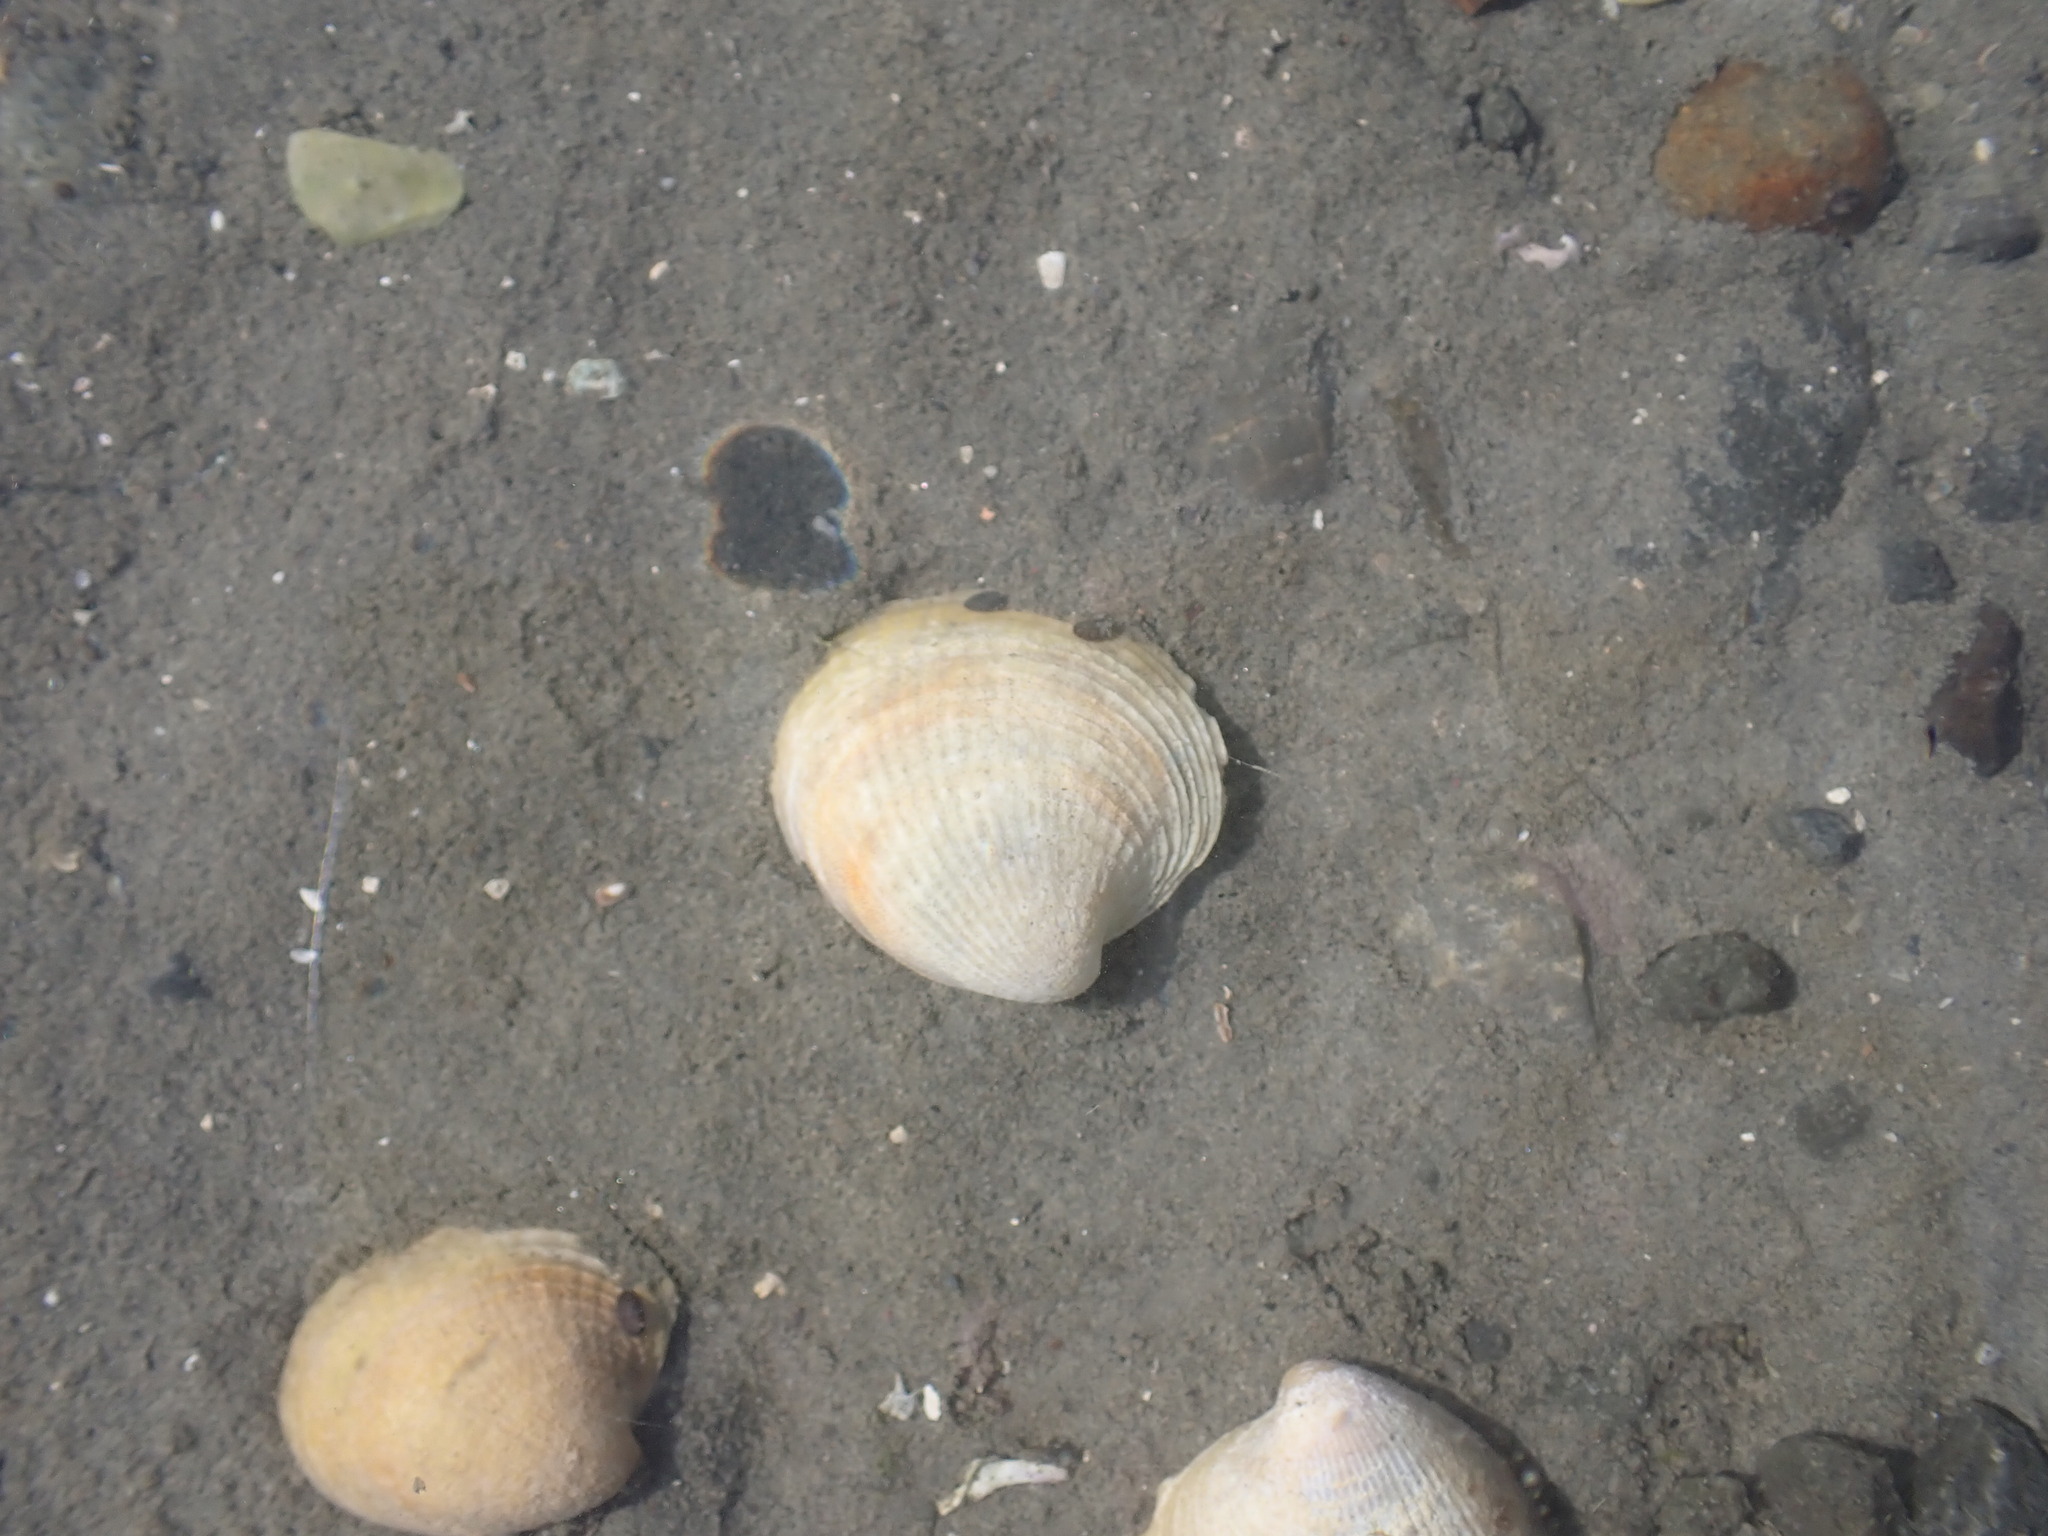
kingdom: Animalia
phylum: Mollusca
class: Bivalvia
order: Venerida
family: Veneridae
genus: Austrovenus
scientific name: Austrovenus stutchburyi
